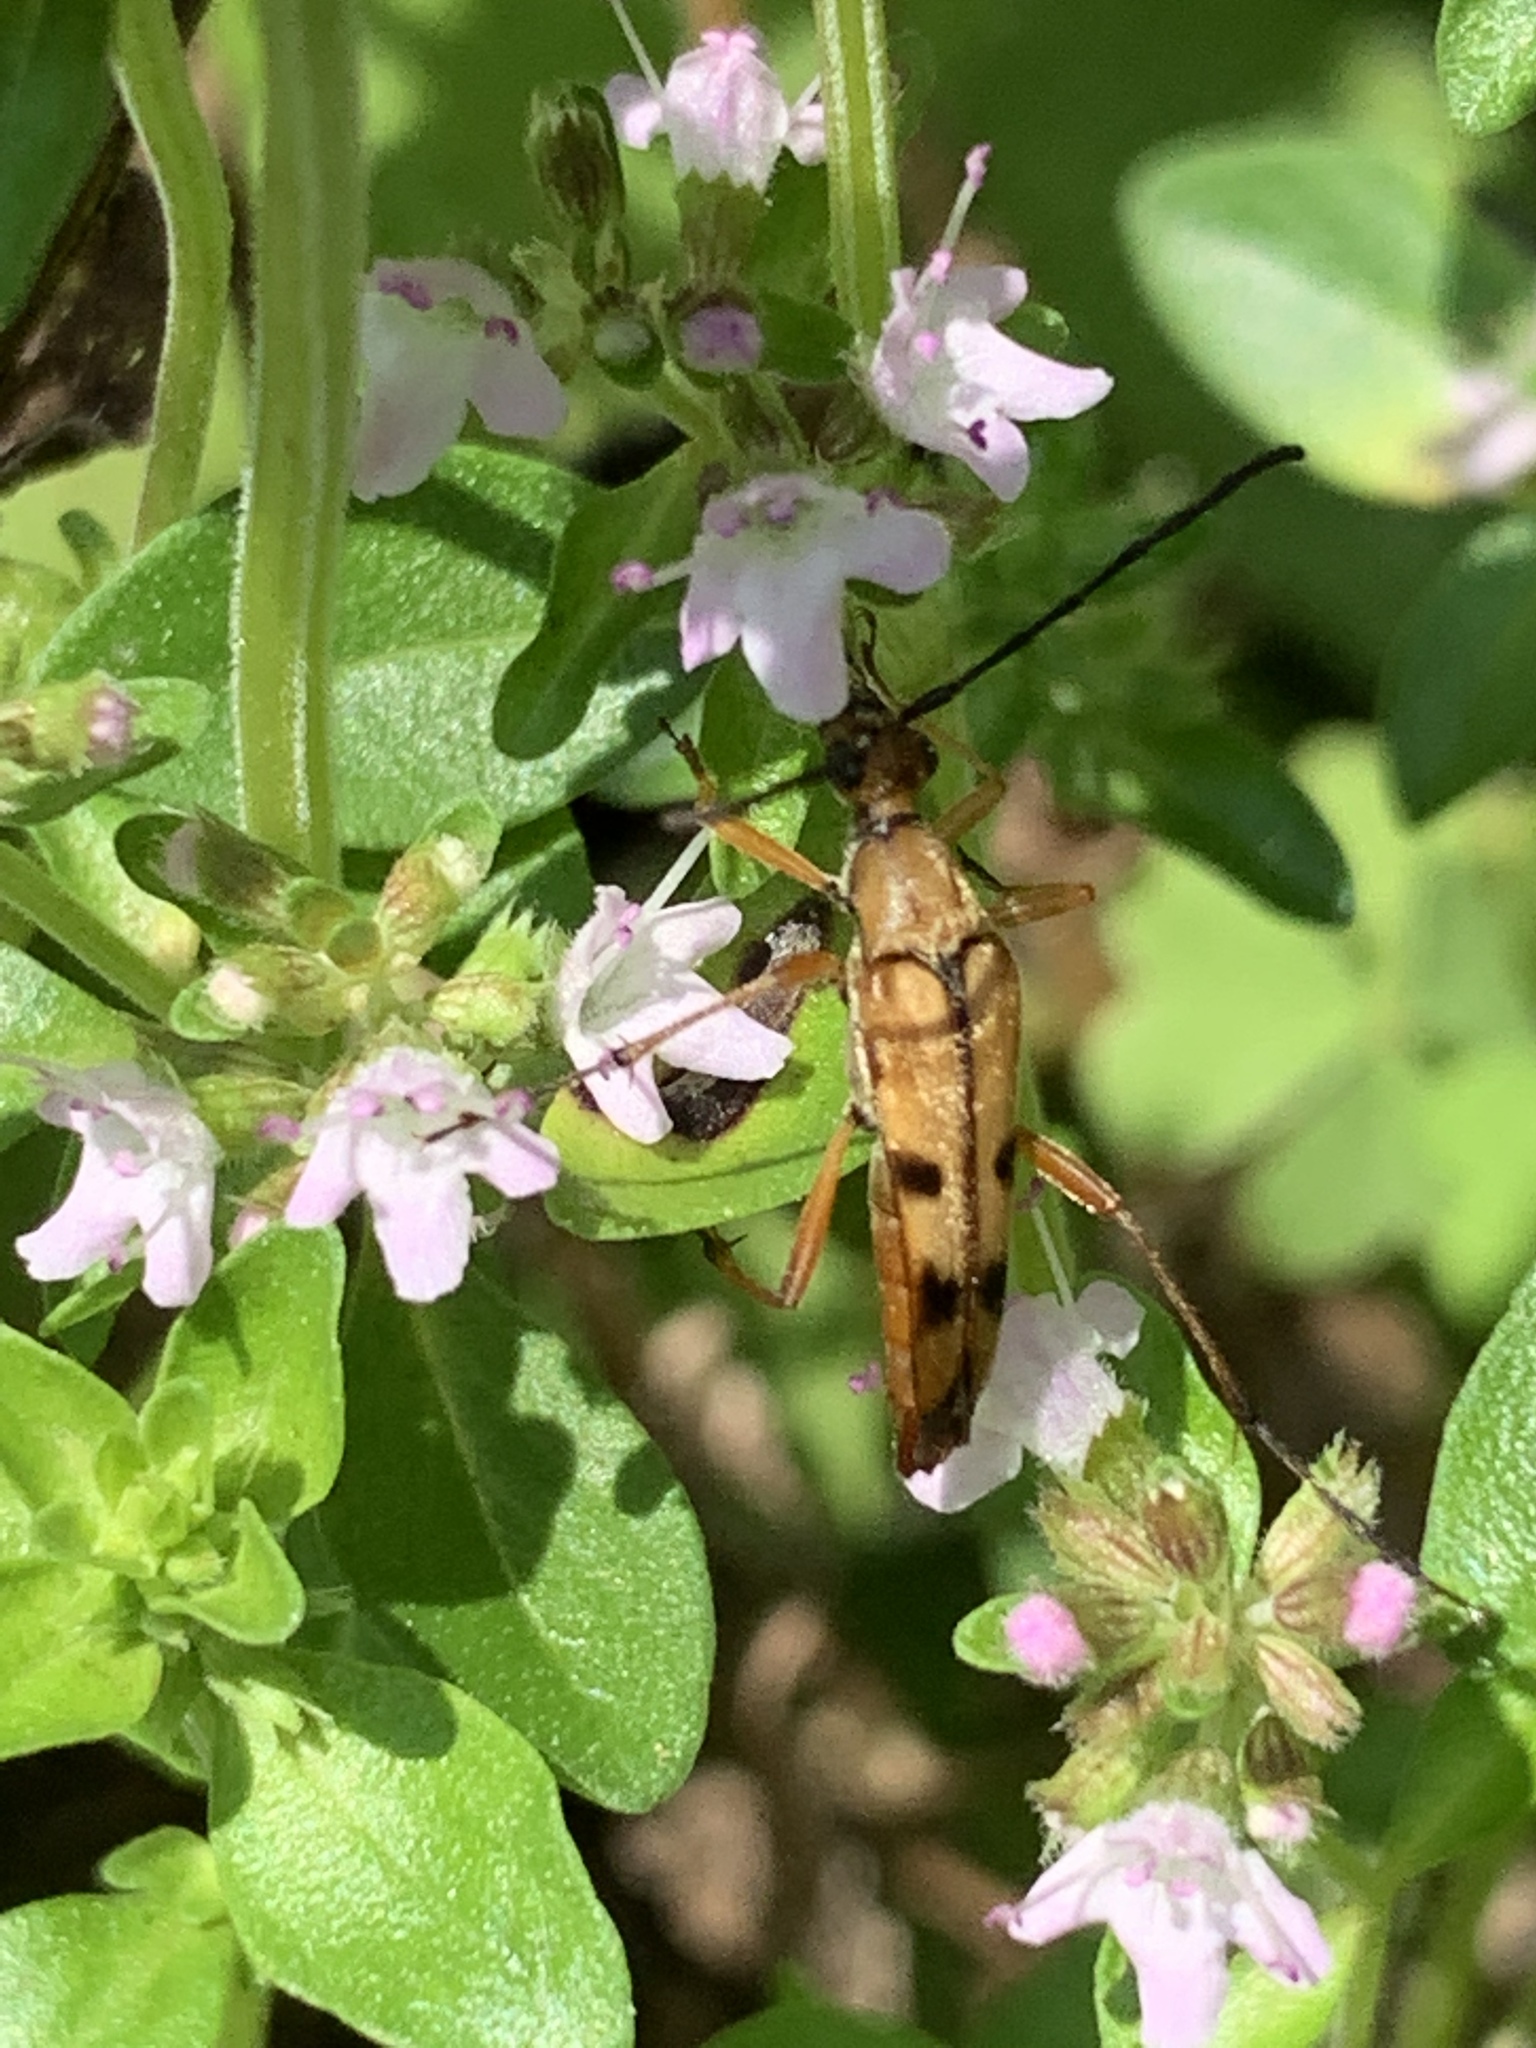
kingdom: Animalia
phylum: Arthropoda
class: Insecta
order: Coleoptera
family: Cerambycidae
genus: Strangalia
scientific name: Strangalia famelica
